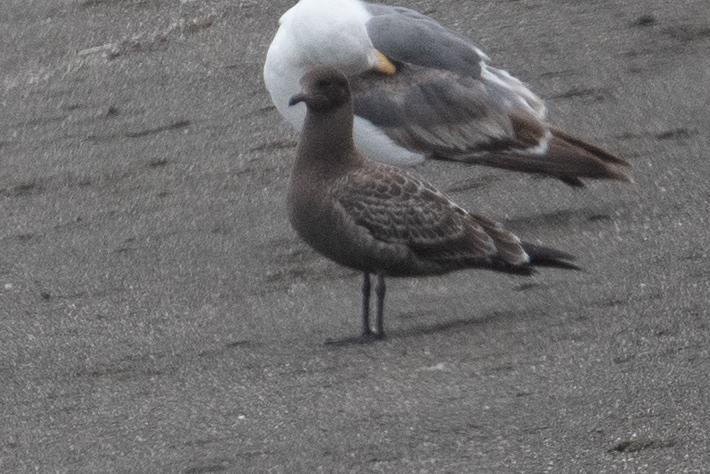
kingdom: Animalia
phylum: Chordata
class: Aves
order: Charadriiformes
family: Laridae
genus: Larus
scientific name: Larus heermanni
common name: Heermann's gull
